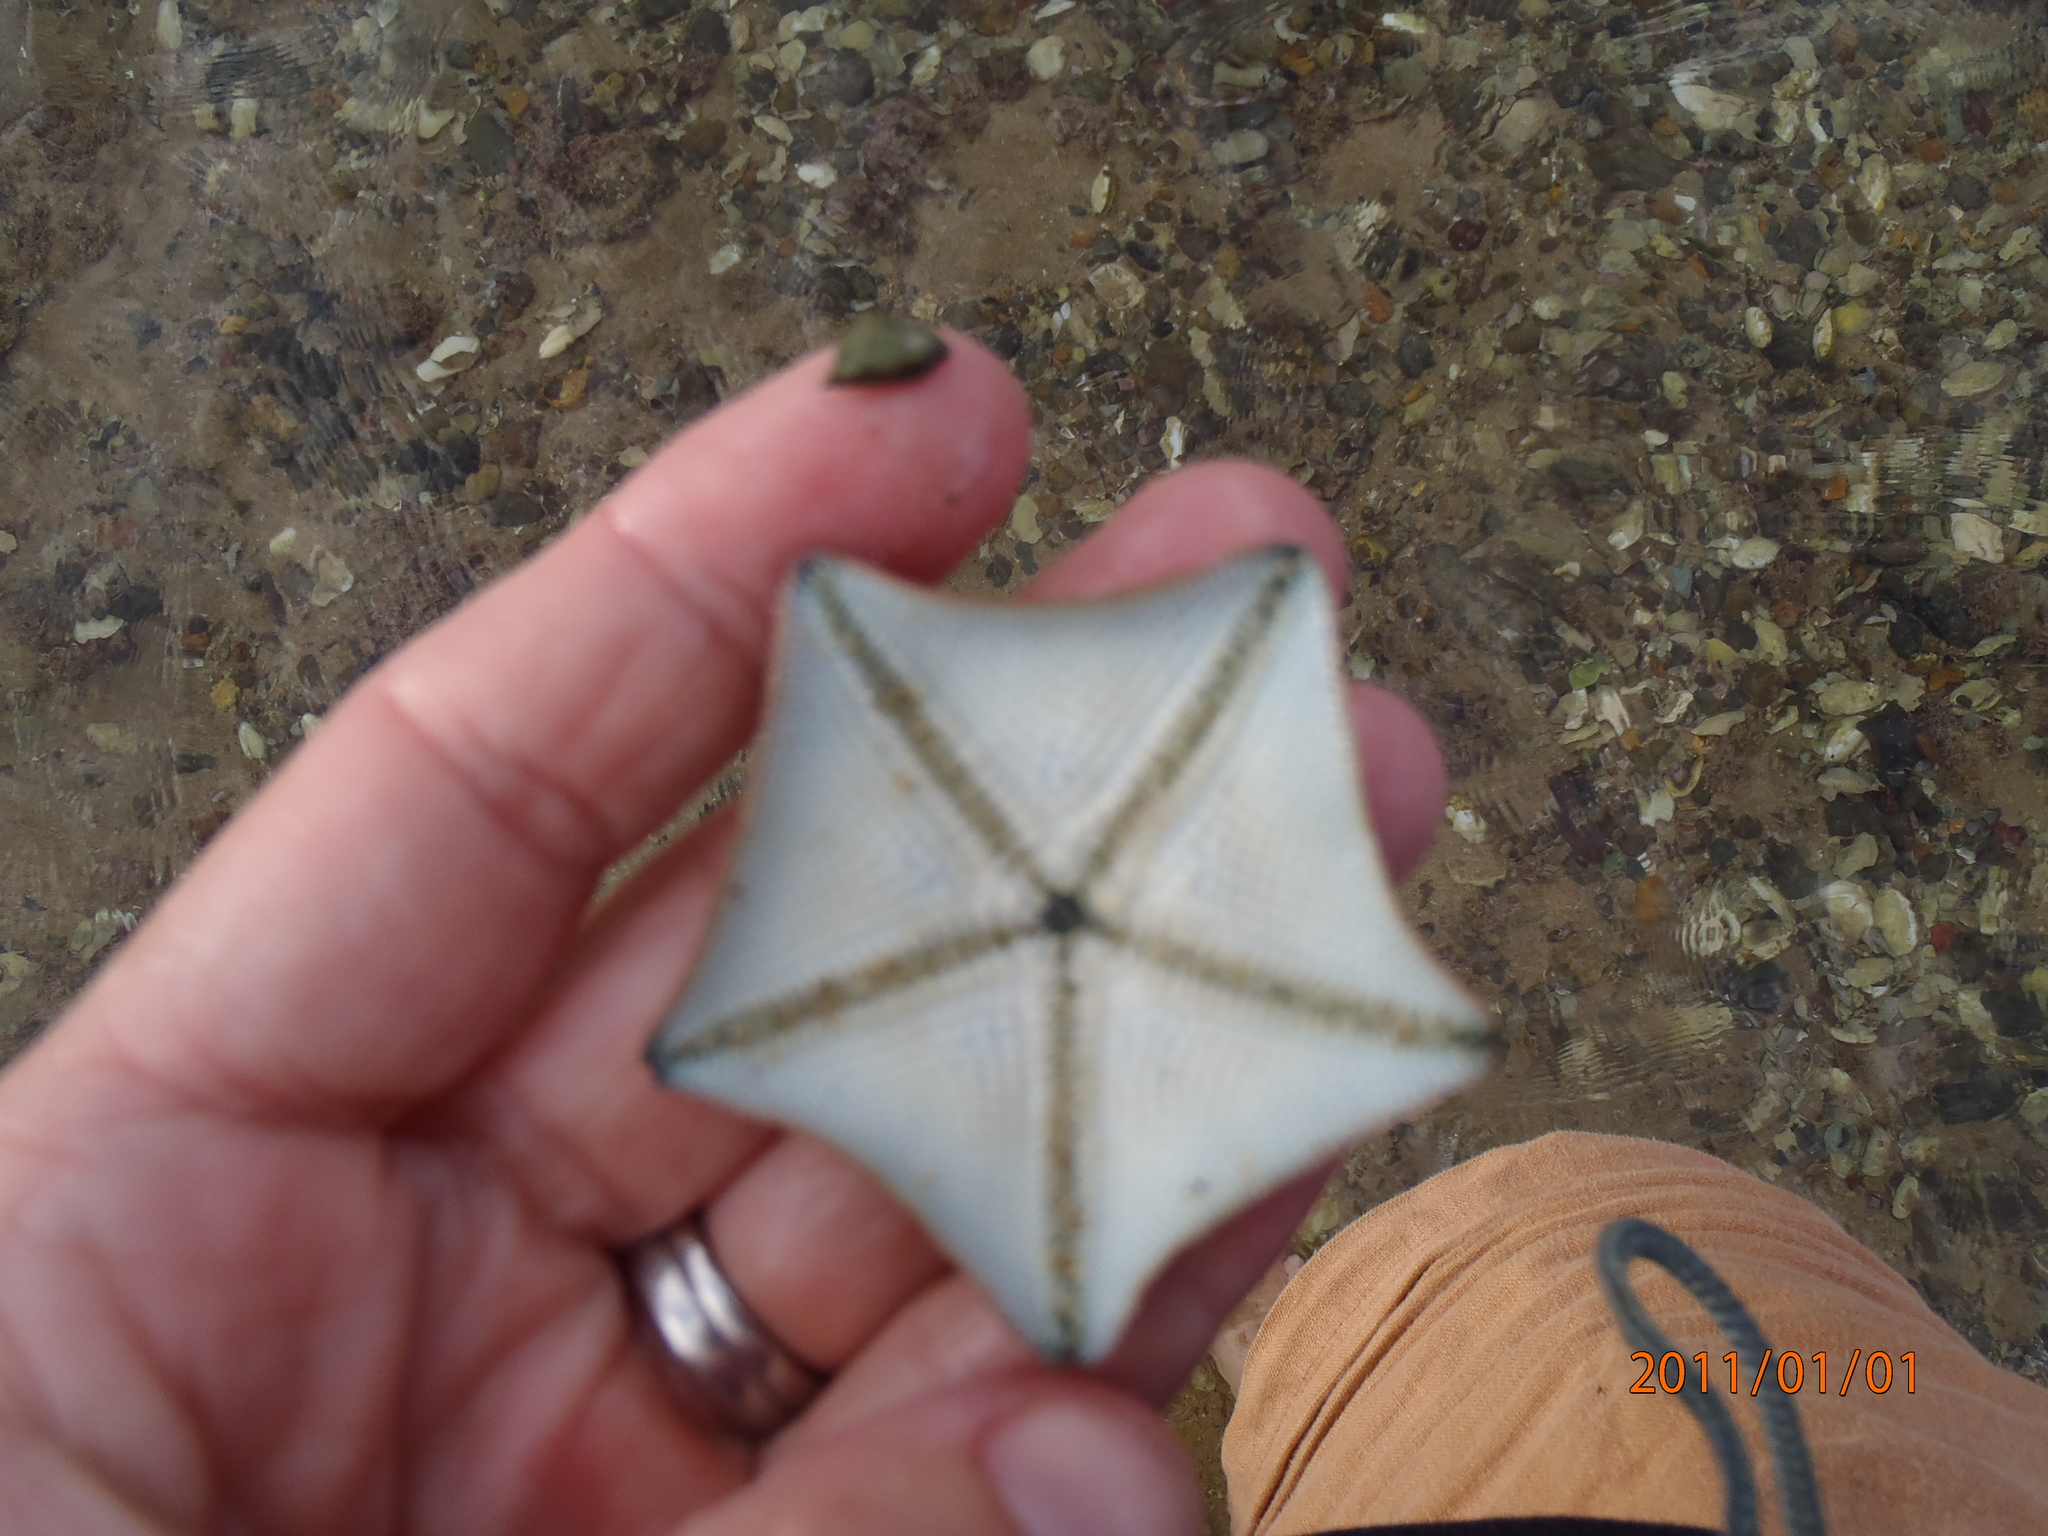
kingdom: Animalia
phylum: Echinodermata
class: Asteroidea
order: Valvatida
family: Asterinidae
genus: Patiriella
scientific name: Patiriella regularis
